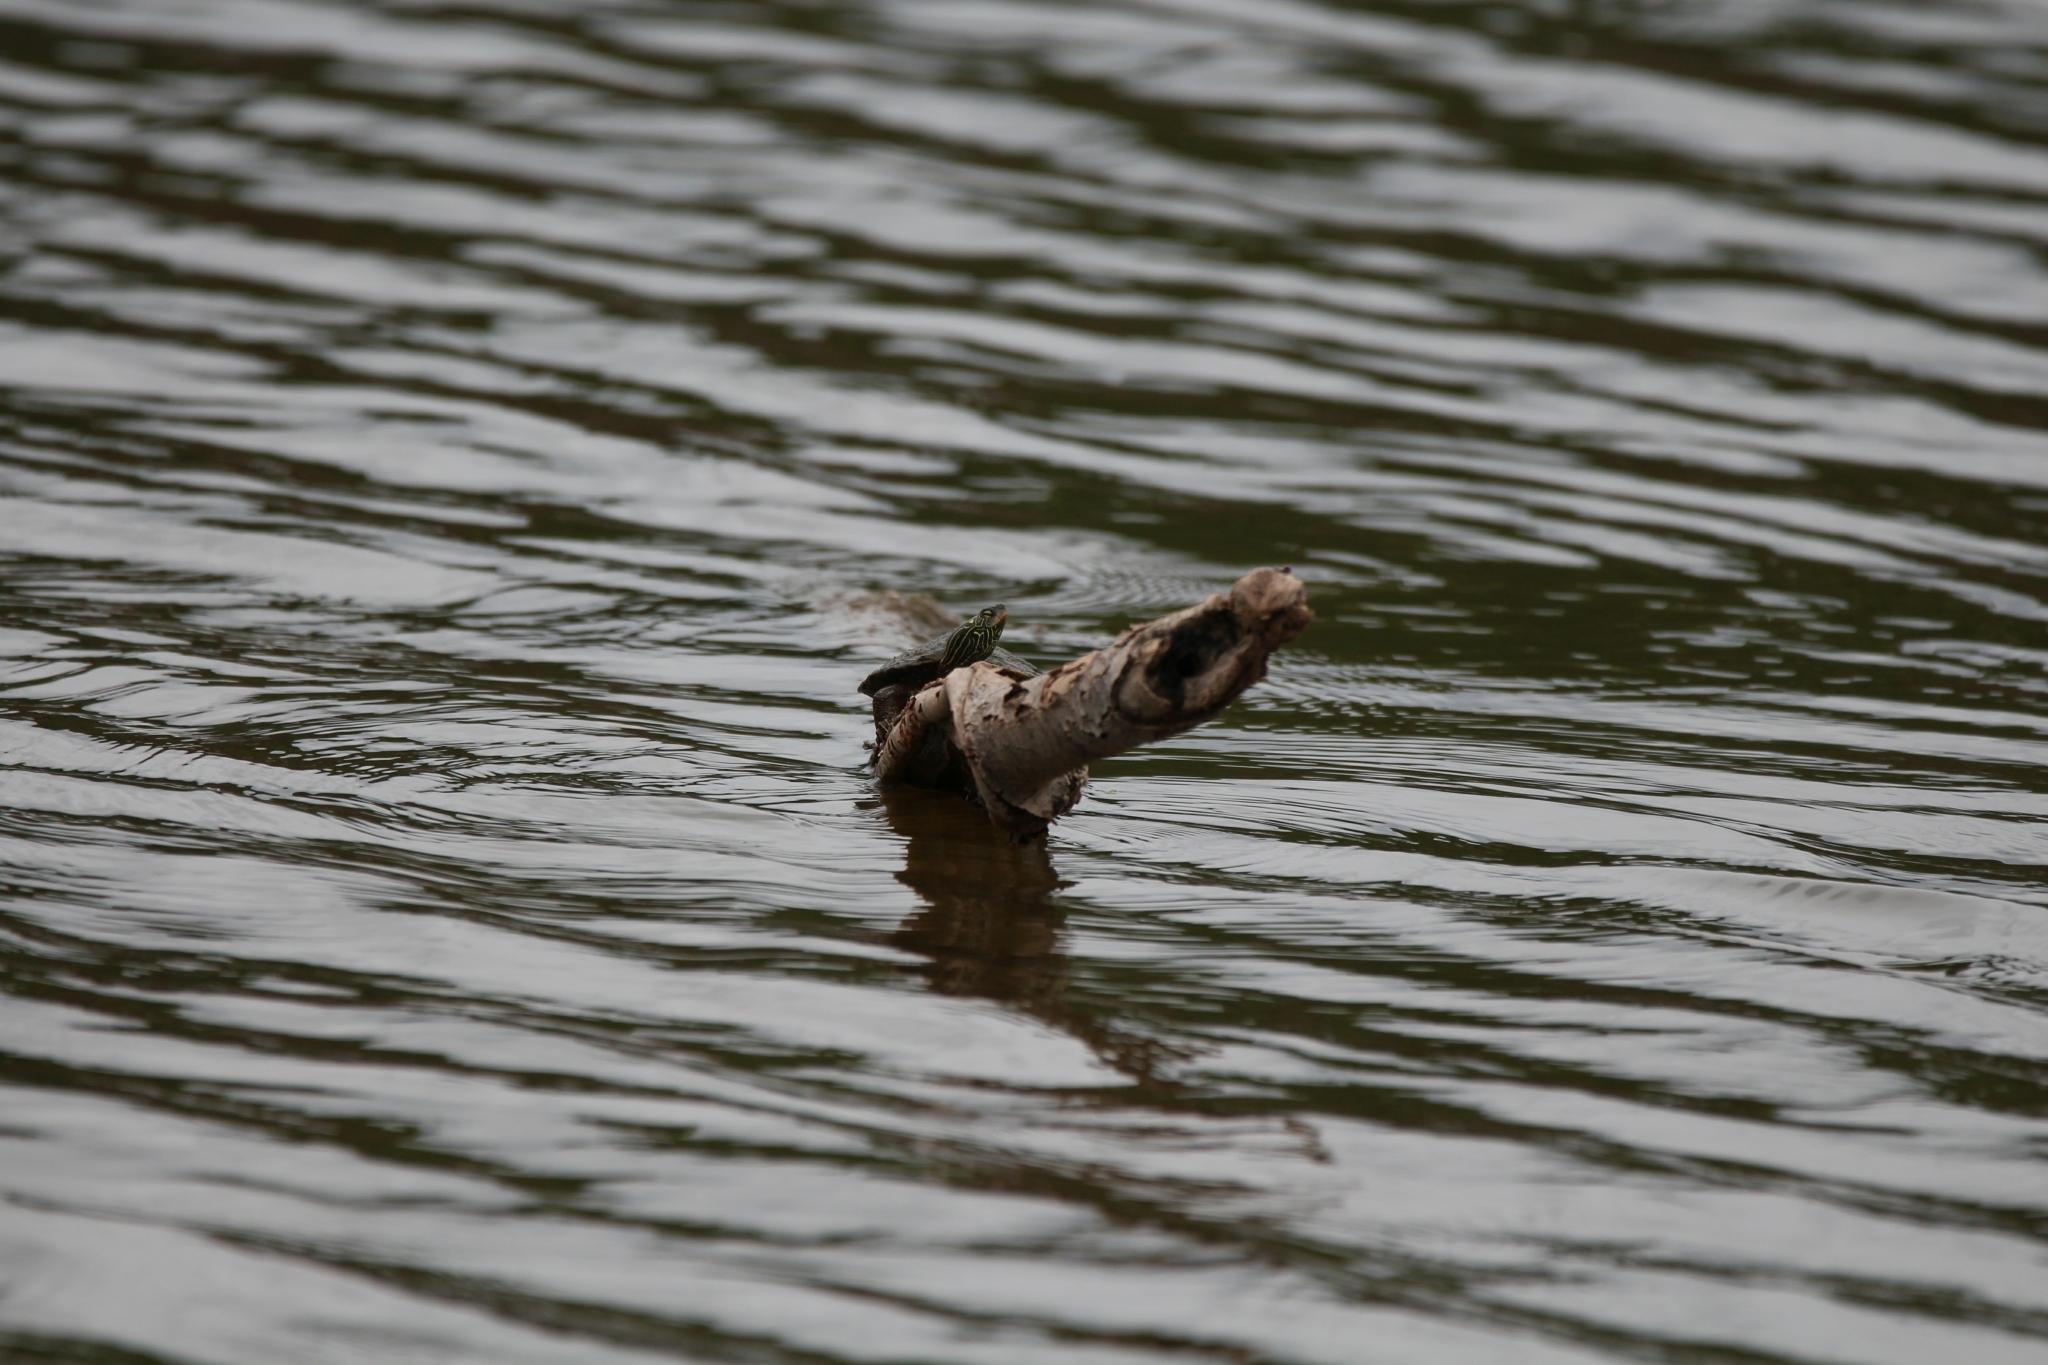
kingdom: Animalia
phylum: Chordata
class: Testudines
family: Emydidae
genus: Graptemys
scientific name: Graptemys geographica
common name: Common map turtle
